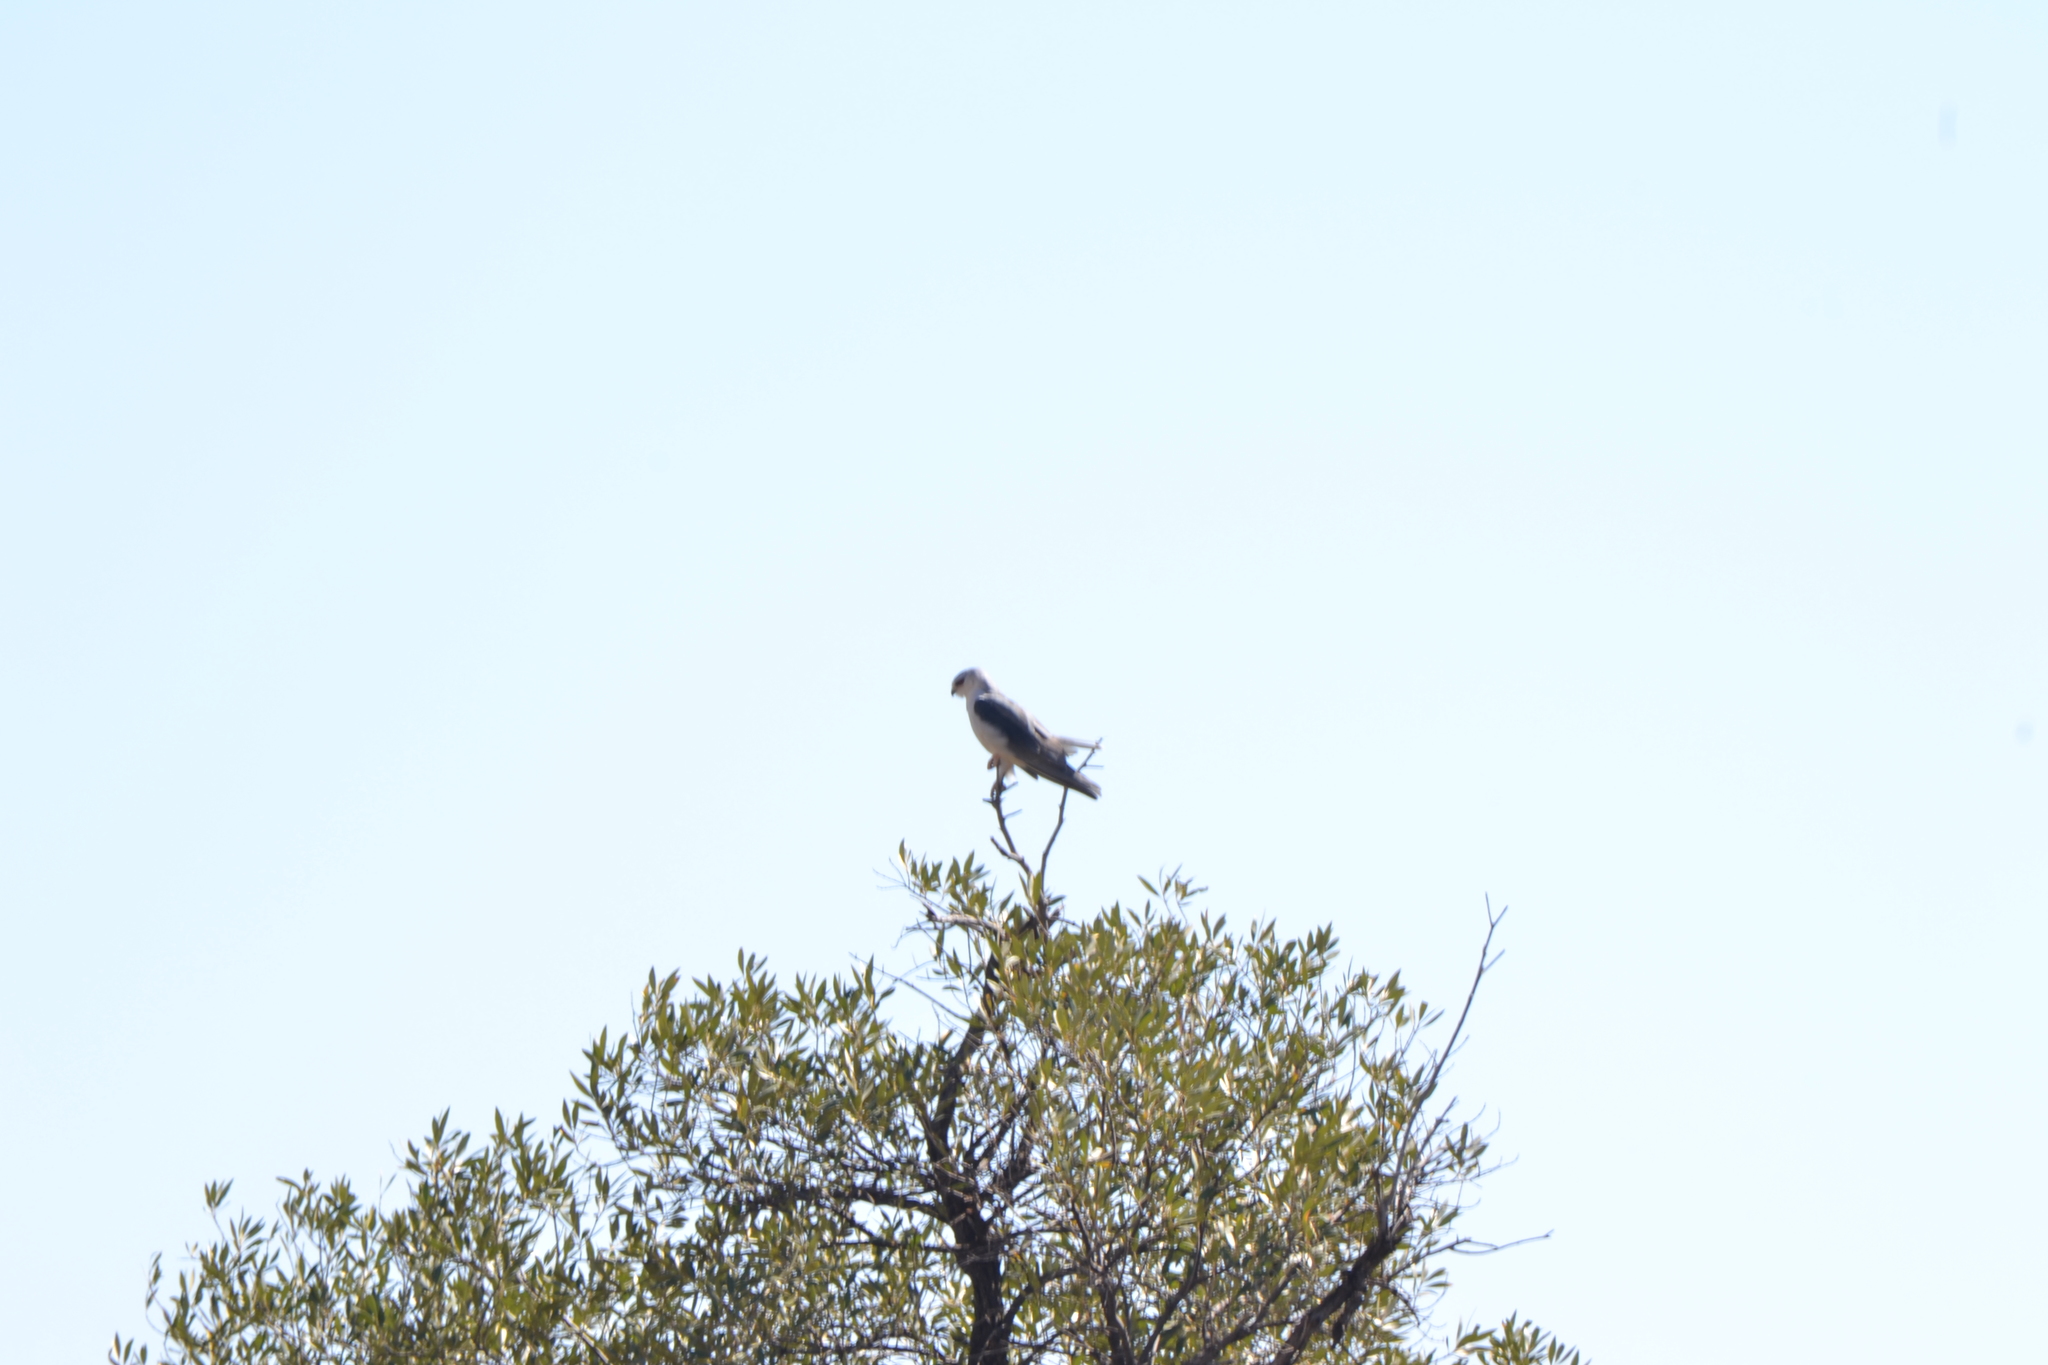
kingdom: Animalia
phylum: Chordata
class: Aves
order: Accipitriformes
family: Accipitridae
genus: Elanus
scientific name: Elanus caeruleus
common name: Black-winged kite
